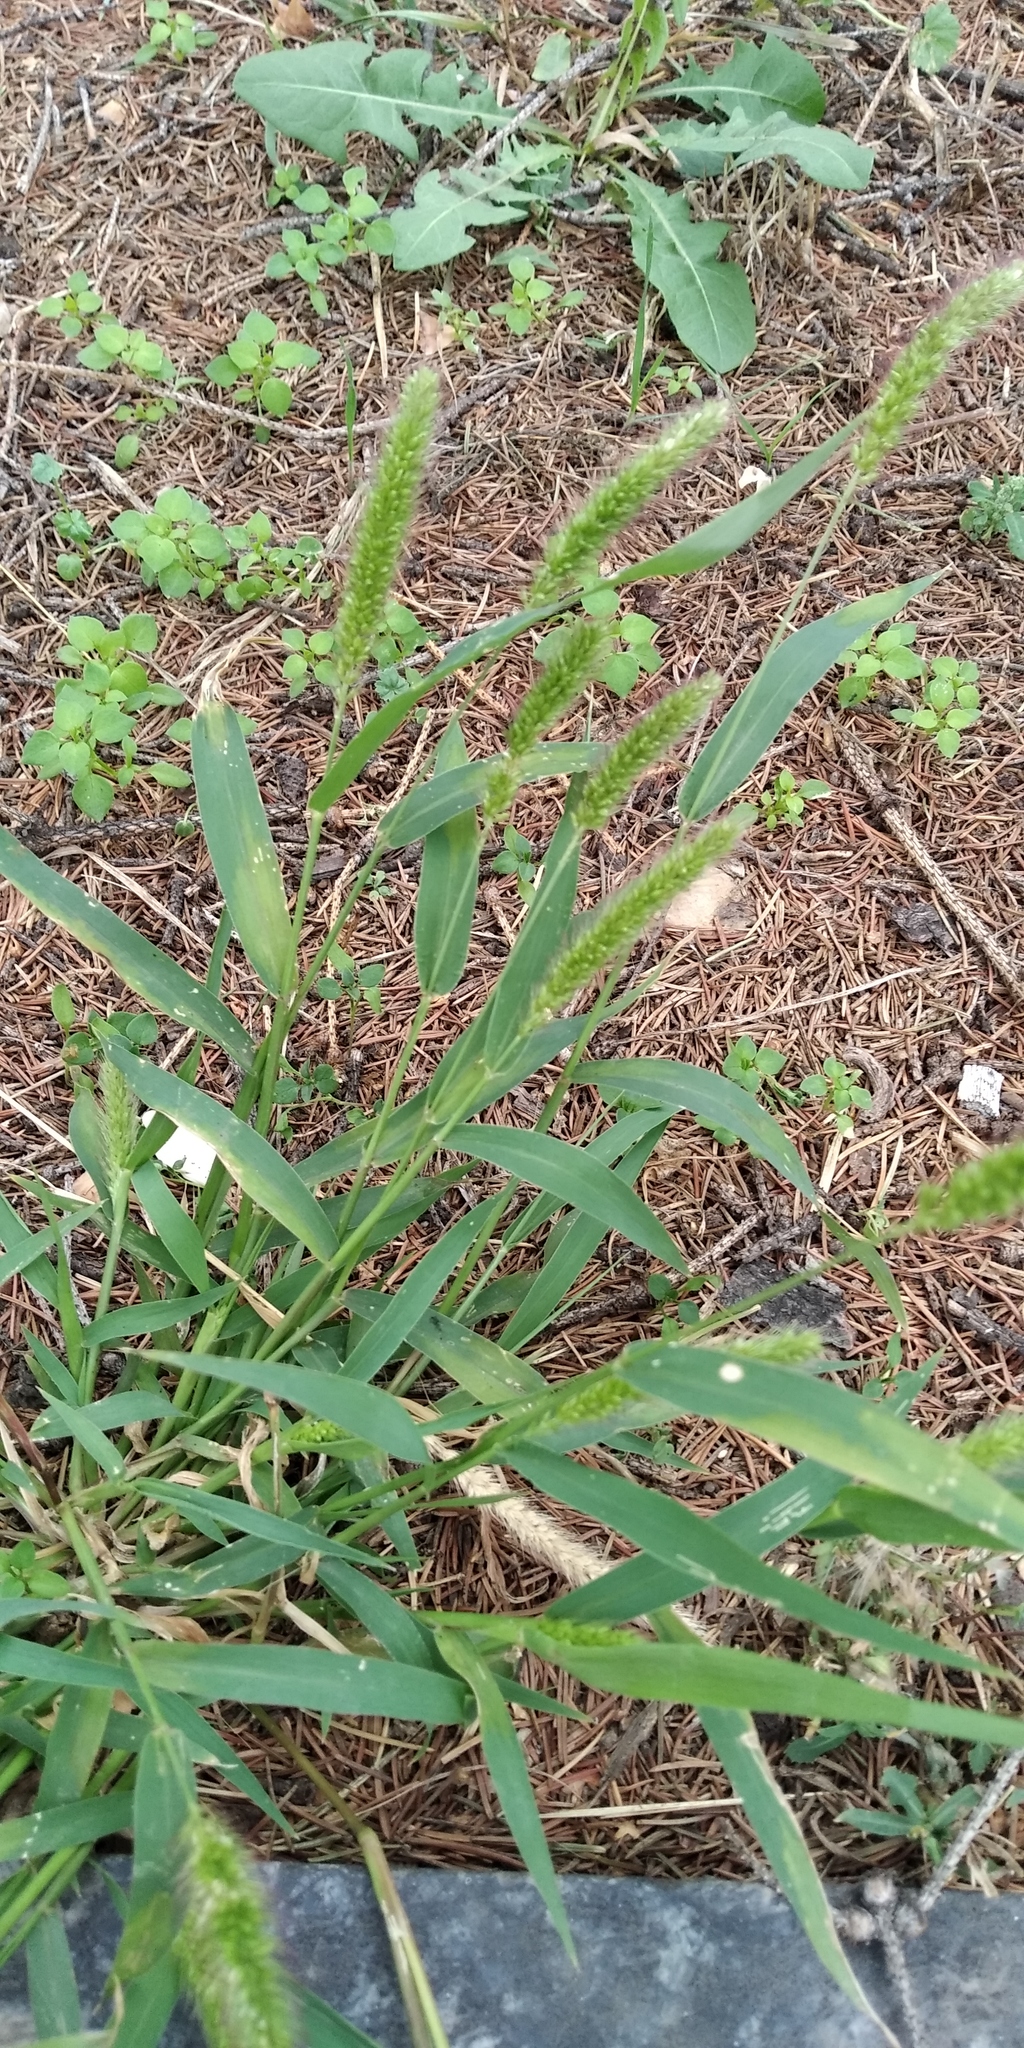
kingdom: Plantae
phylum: Tracheophyta
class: Liliopsida
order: Poales
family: Poaceae
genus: Setaria
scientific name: Setaria viridis
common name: Green bristlegrass
